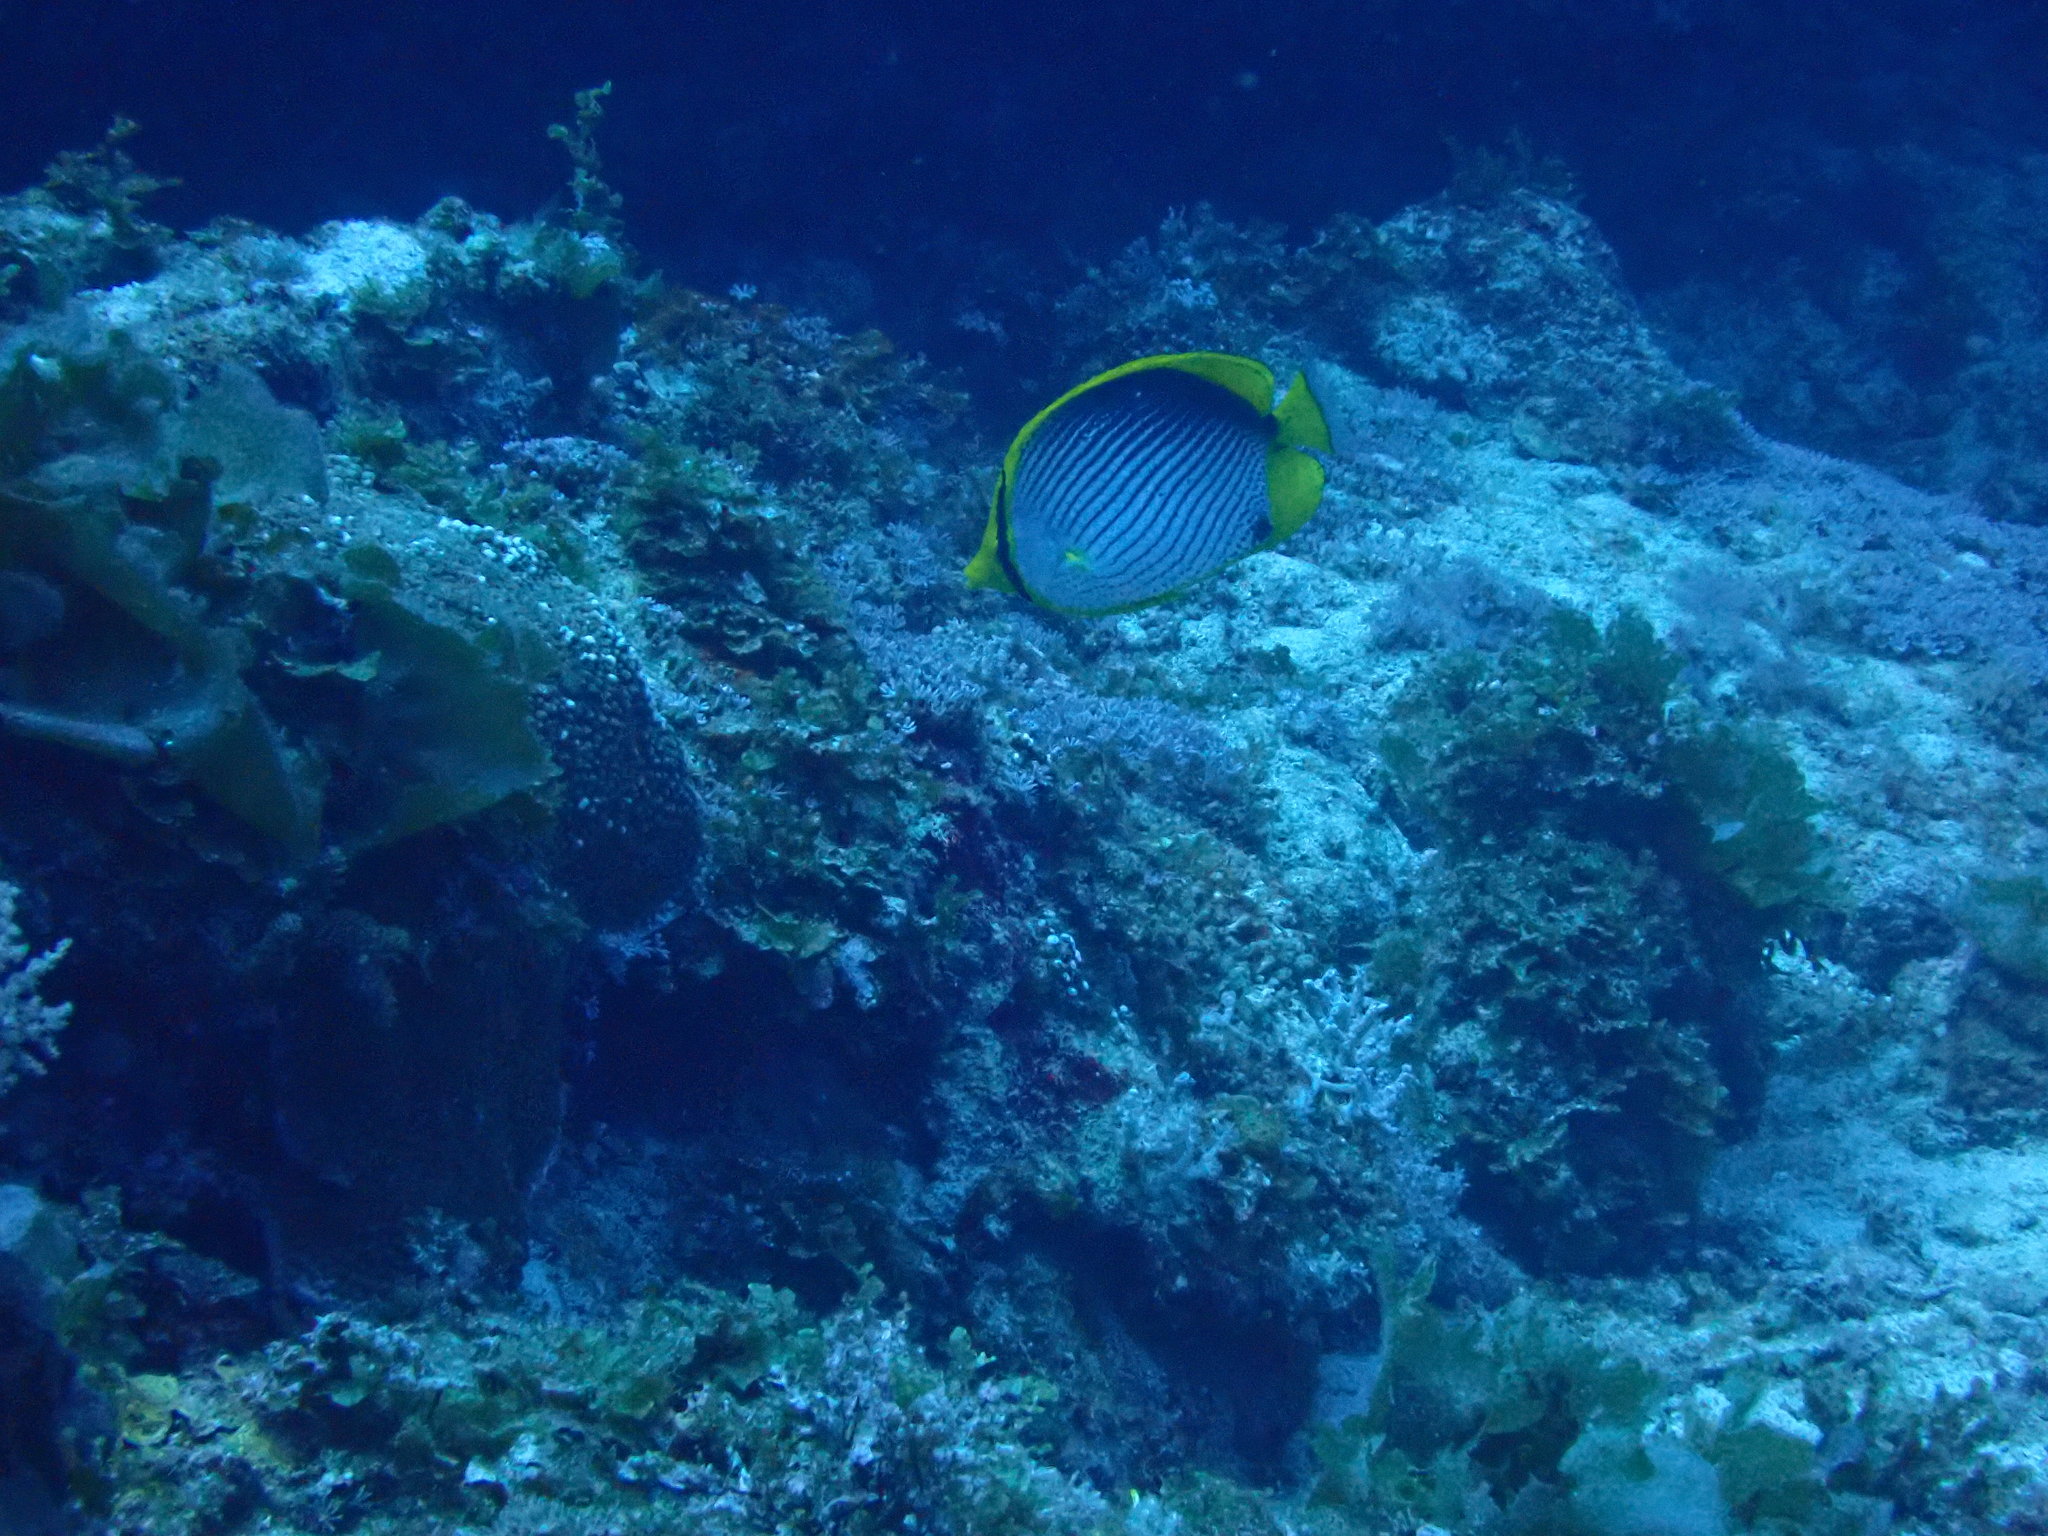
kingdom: Animalia
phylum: Chordata
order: Perciformes
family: Chaetodontidae
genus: Chaetodon
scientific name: Chaetodon melannotus
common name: Blackback butterflyfish
